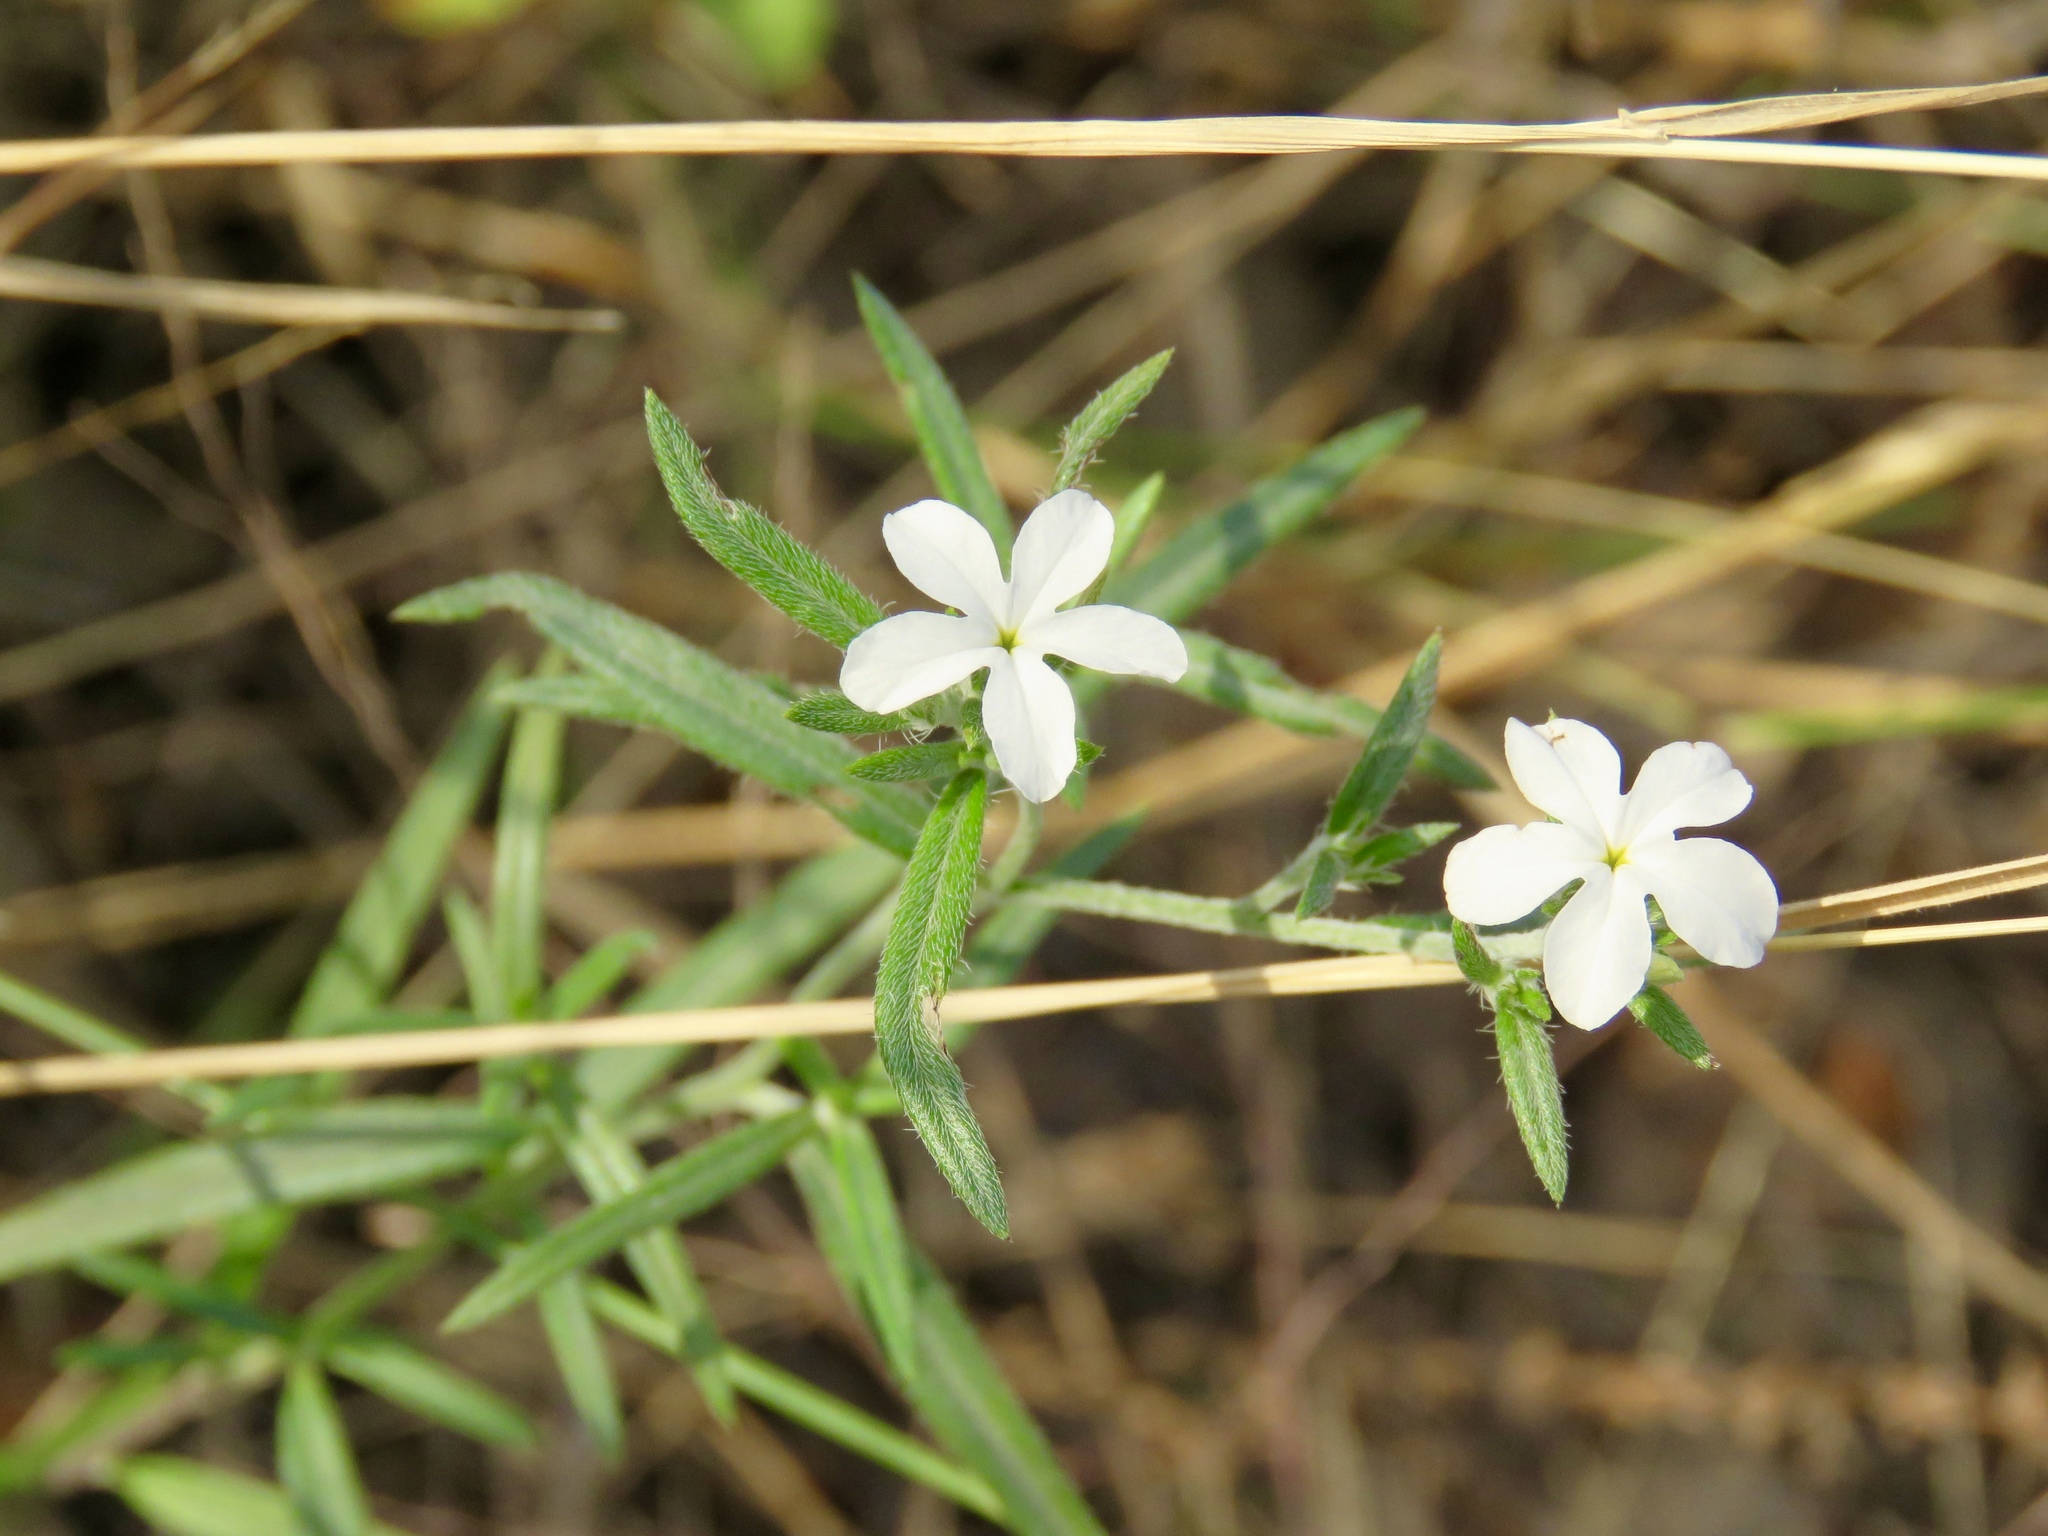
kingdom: Plantae
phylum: Tracheophyta
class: Magnoliopsida
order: Boraginales
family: Heliotropiaceae
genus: Euploca
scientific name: Euploca tenella
